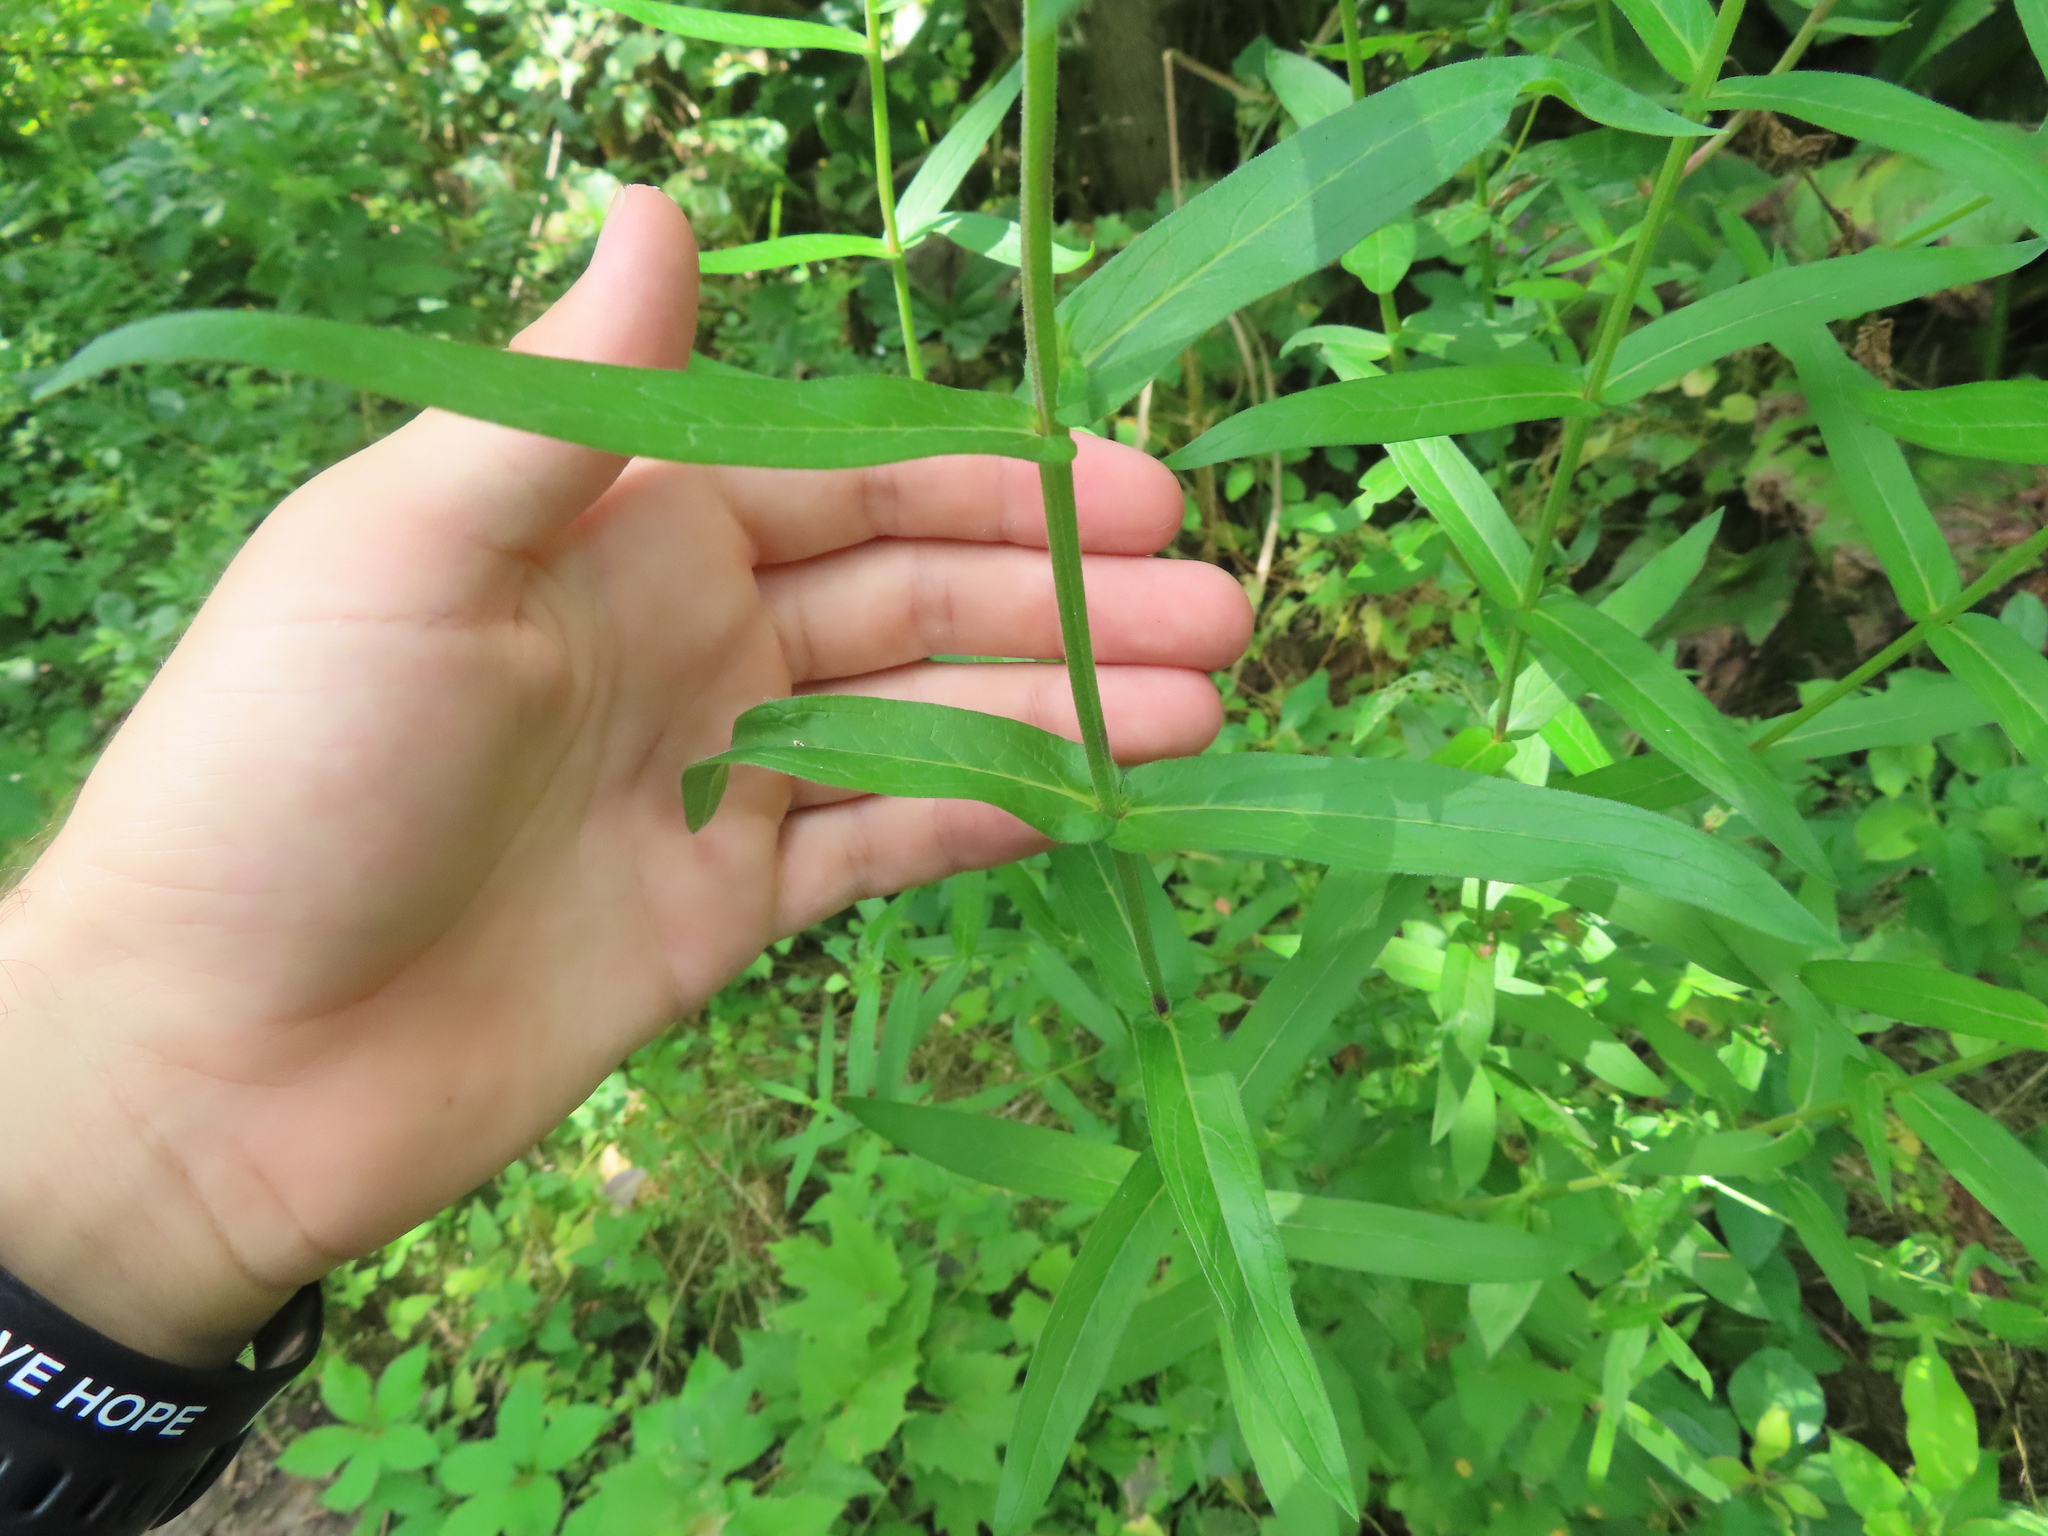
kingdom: Plantae
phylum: Tracheophyta
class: Magnoliopsida
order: Myrtales
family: Lythraceae
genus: Lythrum
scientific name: Lythrum salicaria
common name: Purple loosestrife
